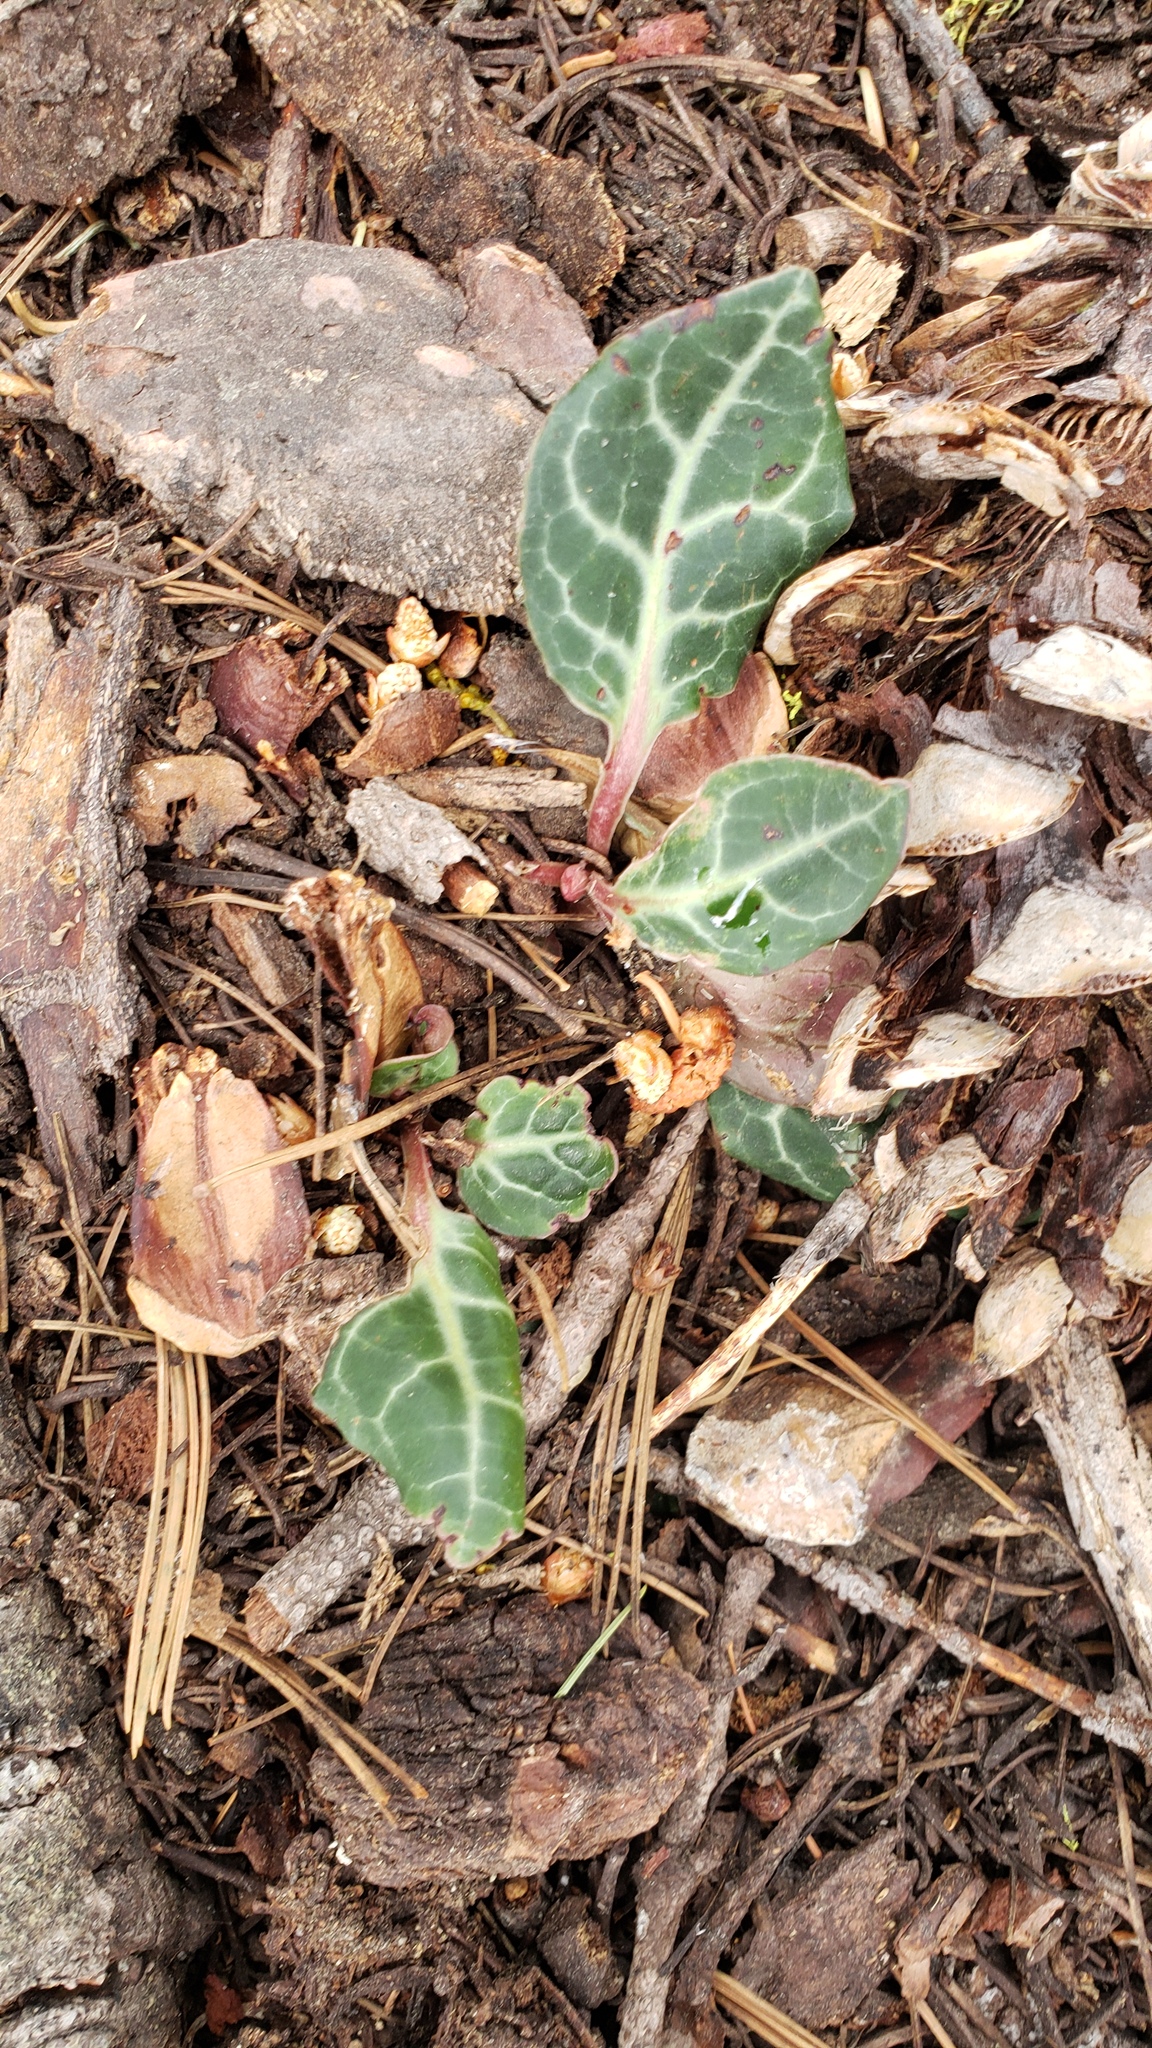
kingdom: Plantae
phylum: Tracheophyta
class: Magnoliopsida
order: Ericales
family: Ericaceae
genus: Pyrola
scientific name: Pyrola picta
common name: White-vein wintergreen
